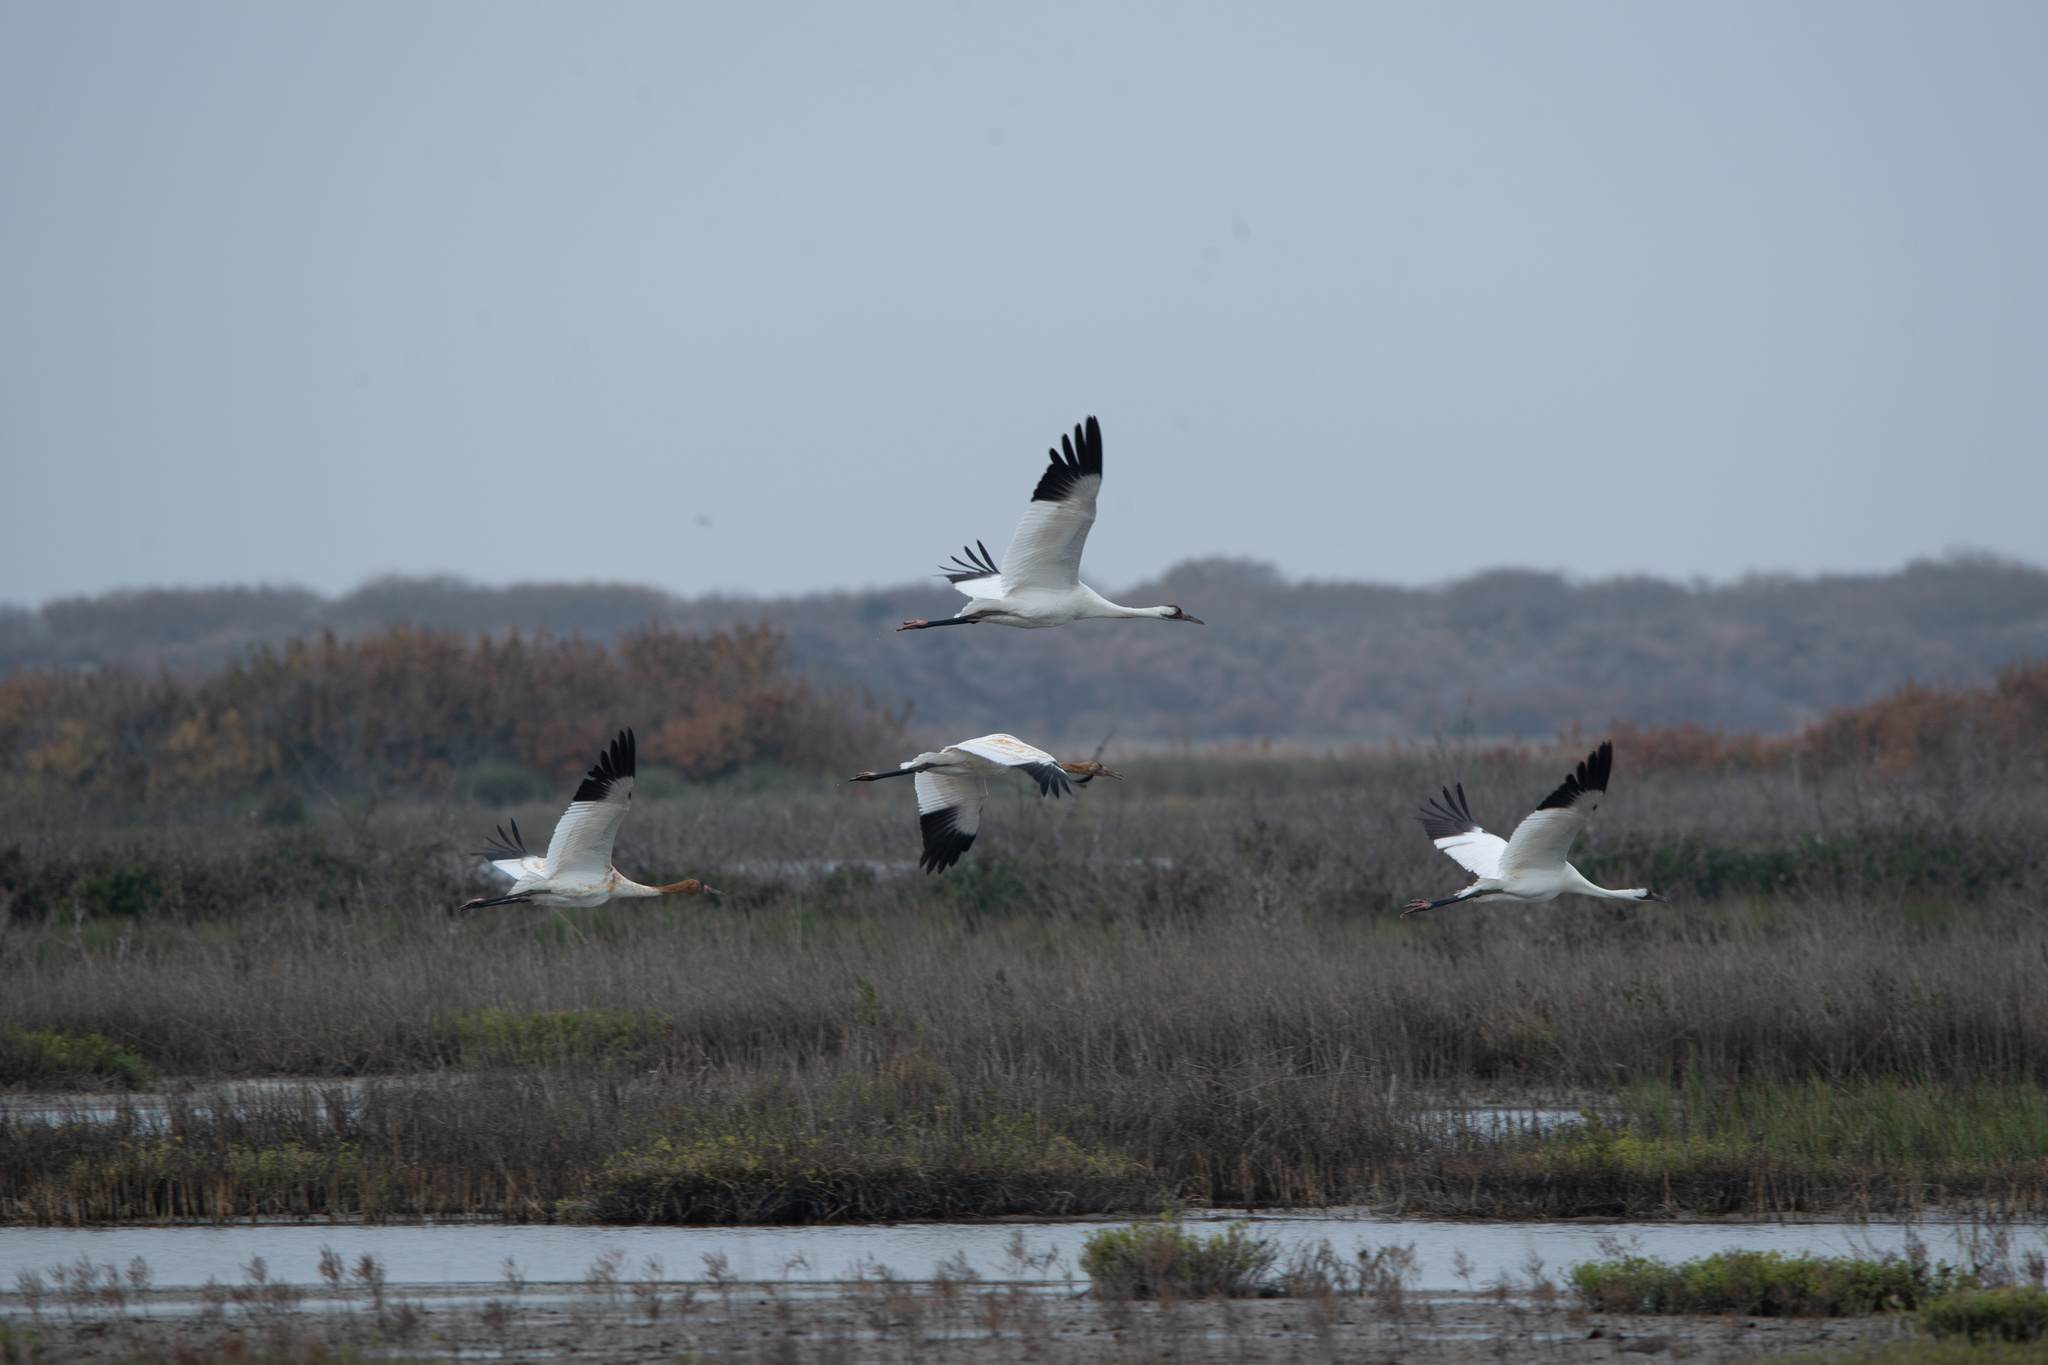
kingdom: Animalia
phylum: Chordata
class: Aves
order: Gruiformes
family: Gruidae
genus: Grus
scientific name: Grus americana
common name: Whooping crane
